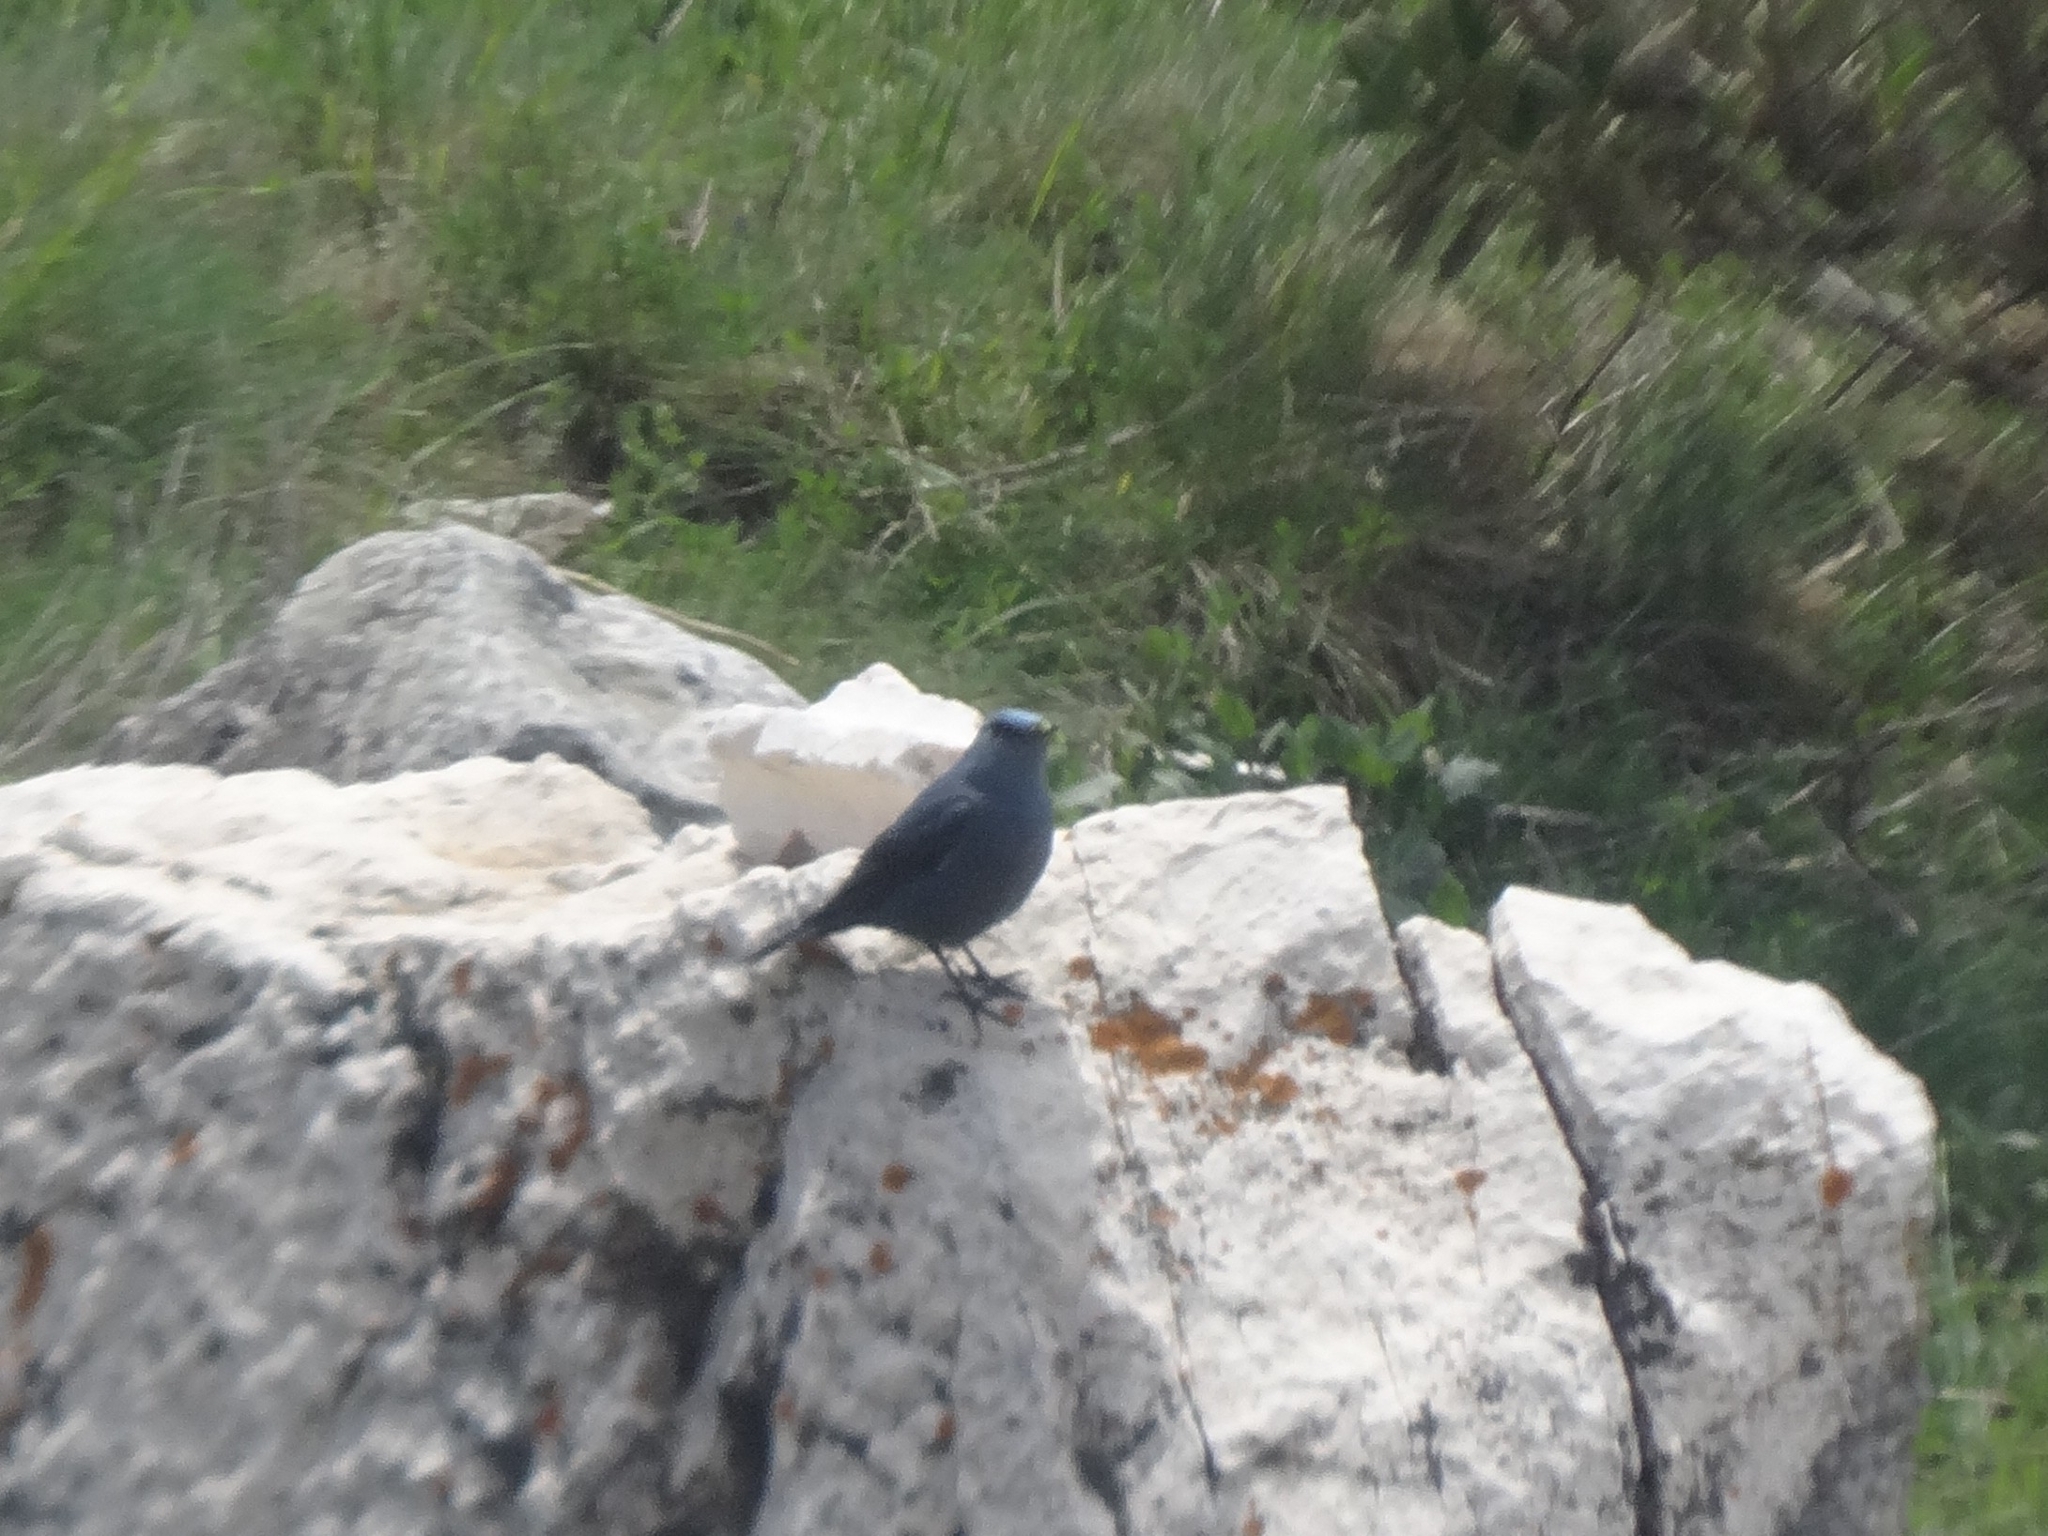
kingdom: Animalia
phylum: Chordata
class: Aves
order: Passeriformes
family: Muscicapidae
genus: Monticola
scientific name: Monticola solitarius
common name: Blue rock thrush
